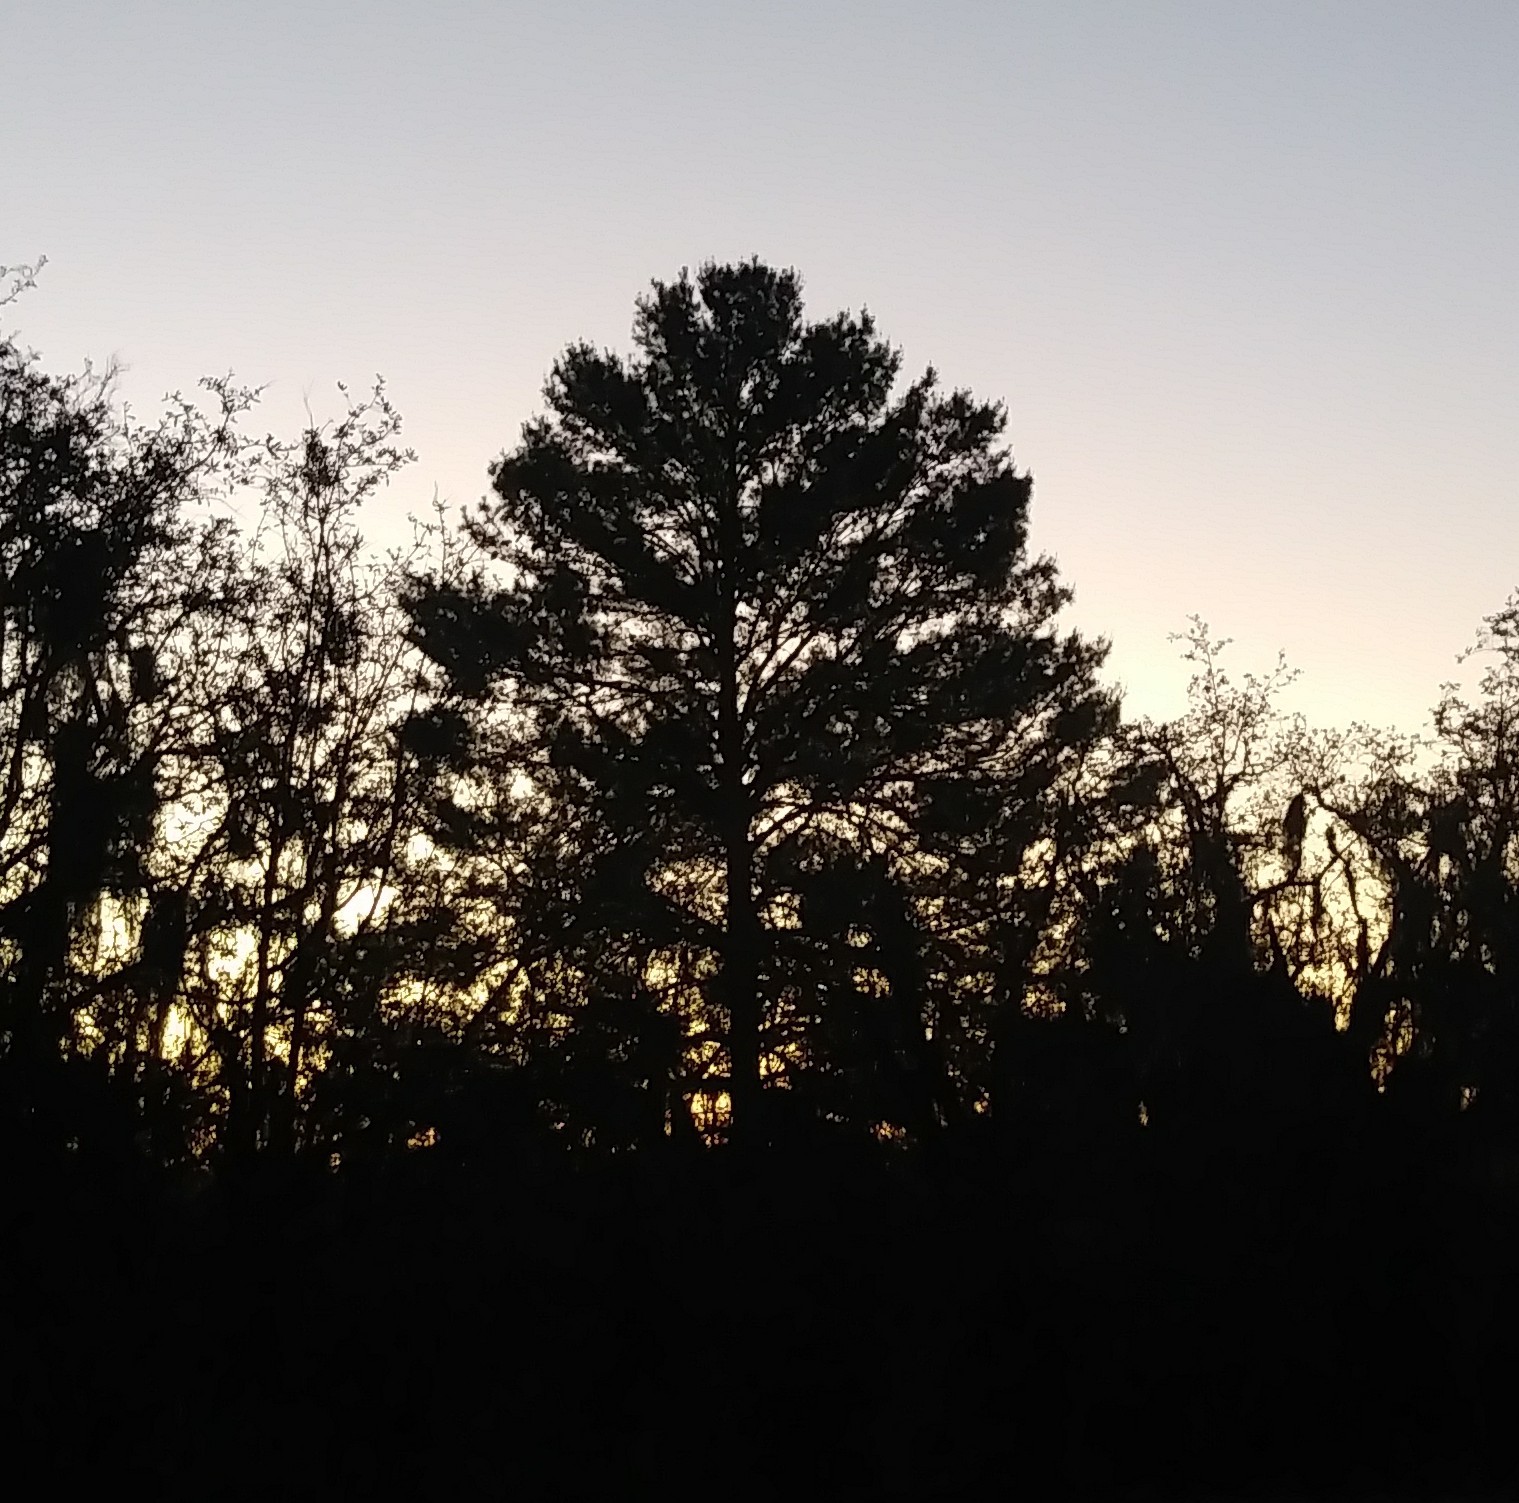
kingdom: Plantae
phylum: Tracheophyta
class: Pinopsida
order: Pinales
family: Pinaceae
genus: Pinus
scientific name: Pinus clausa
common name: Sand pine
